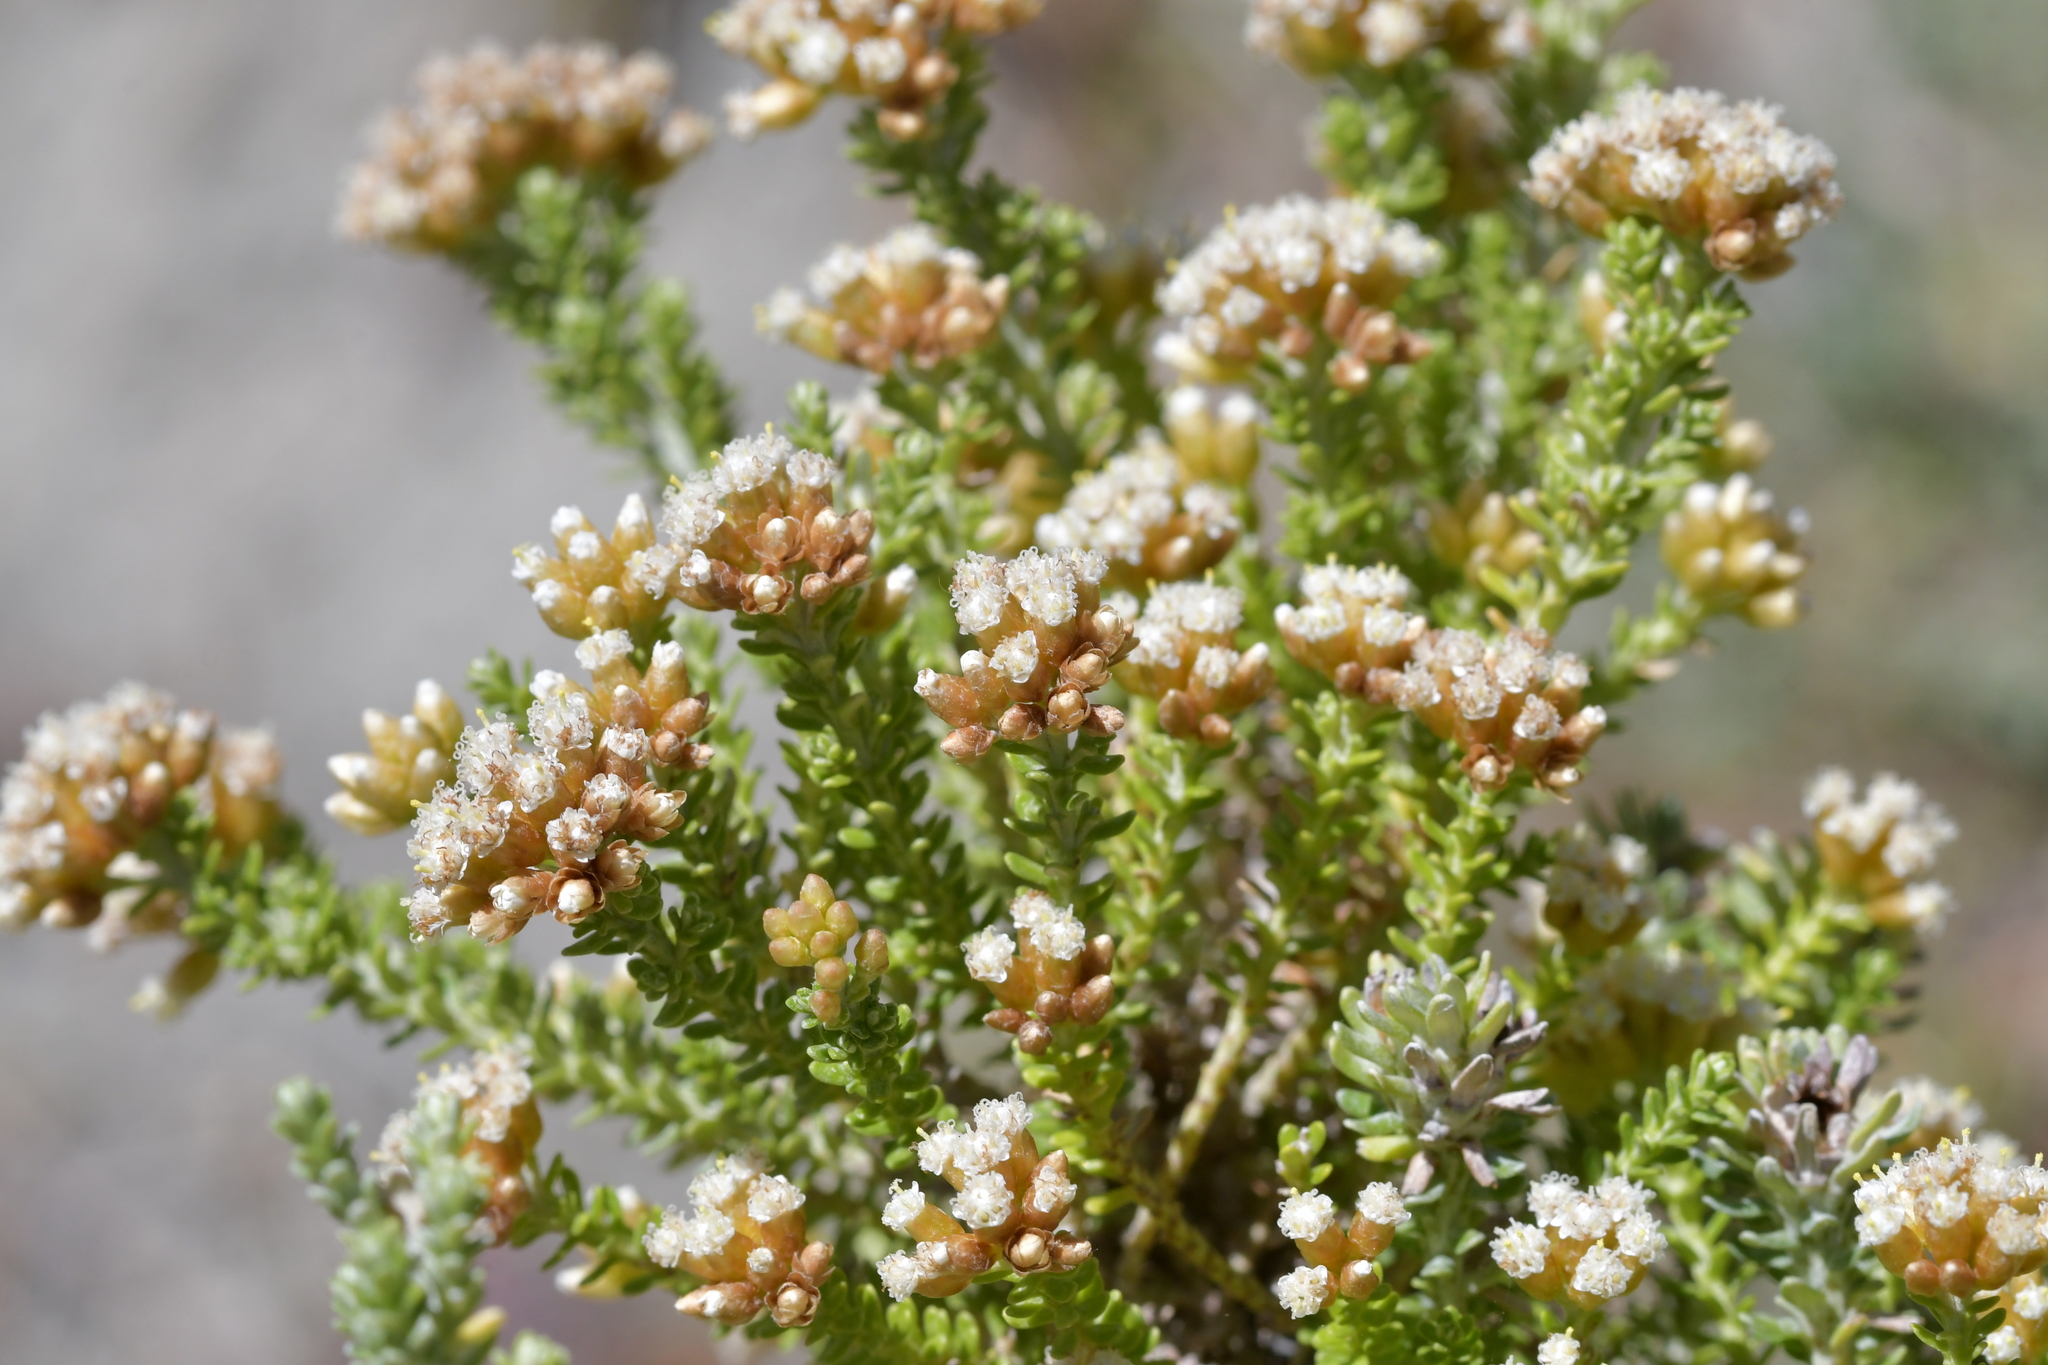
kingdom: Plantae
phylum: Tracheophyta
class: Magnoliopsida
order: Asterales
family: Asteraceae
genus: Ozothamnus
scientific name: Ozothamnus leptophyllus
